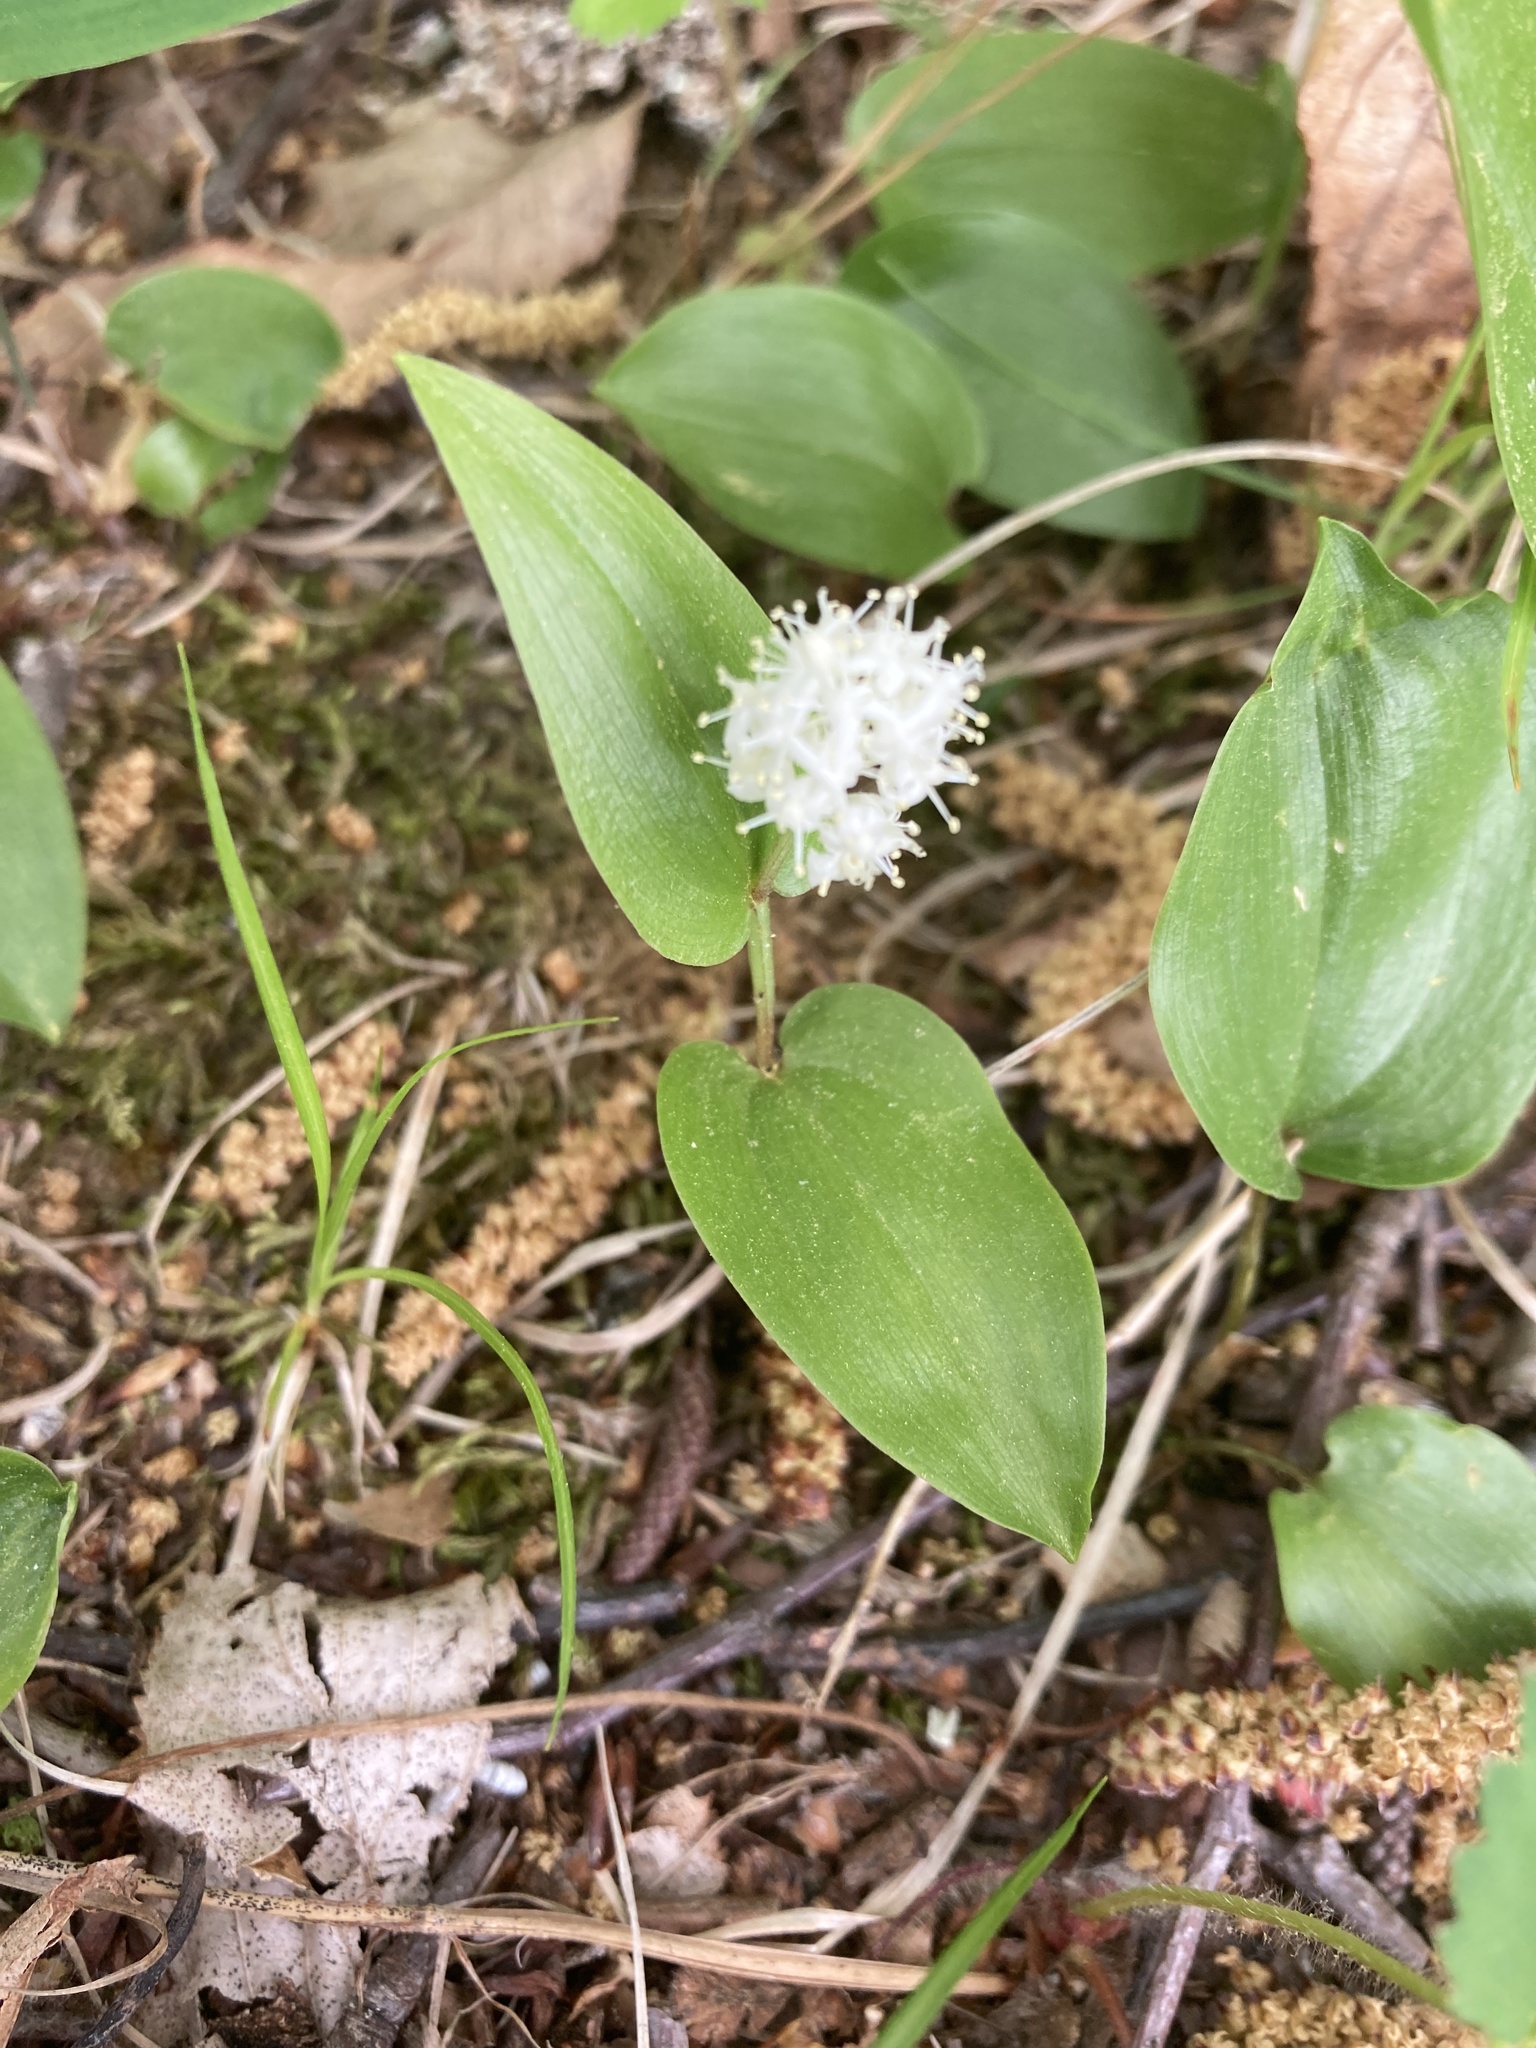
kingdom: Plantae
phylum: Tracheophyta
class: Liliopsida
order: Asparagales
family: Asparagaceae
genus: Maianthemum
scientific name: Maianthemum canadense
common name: False lily-of-the-valley
